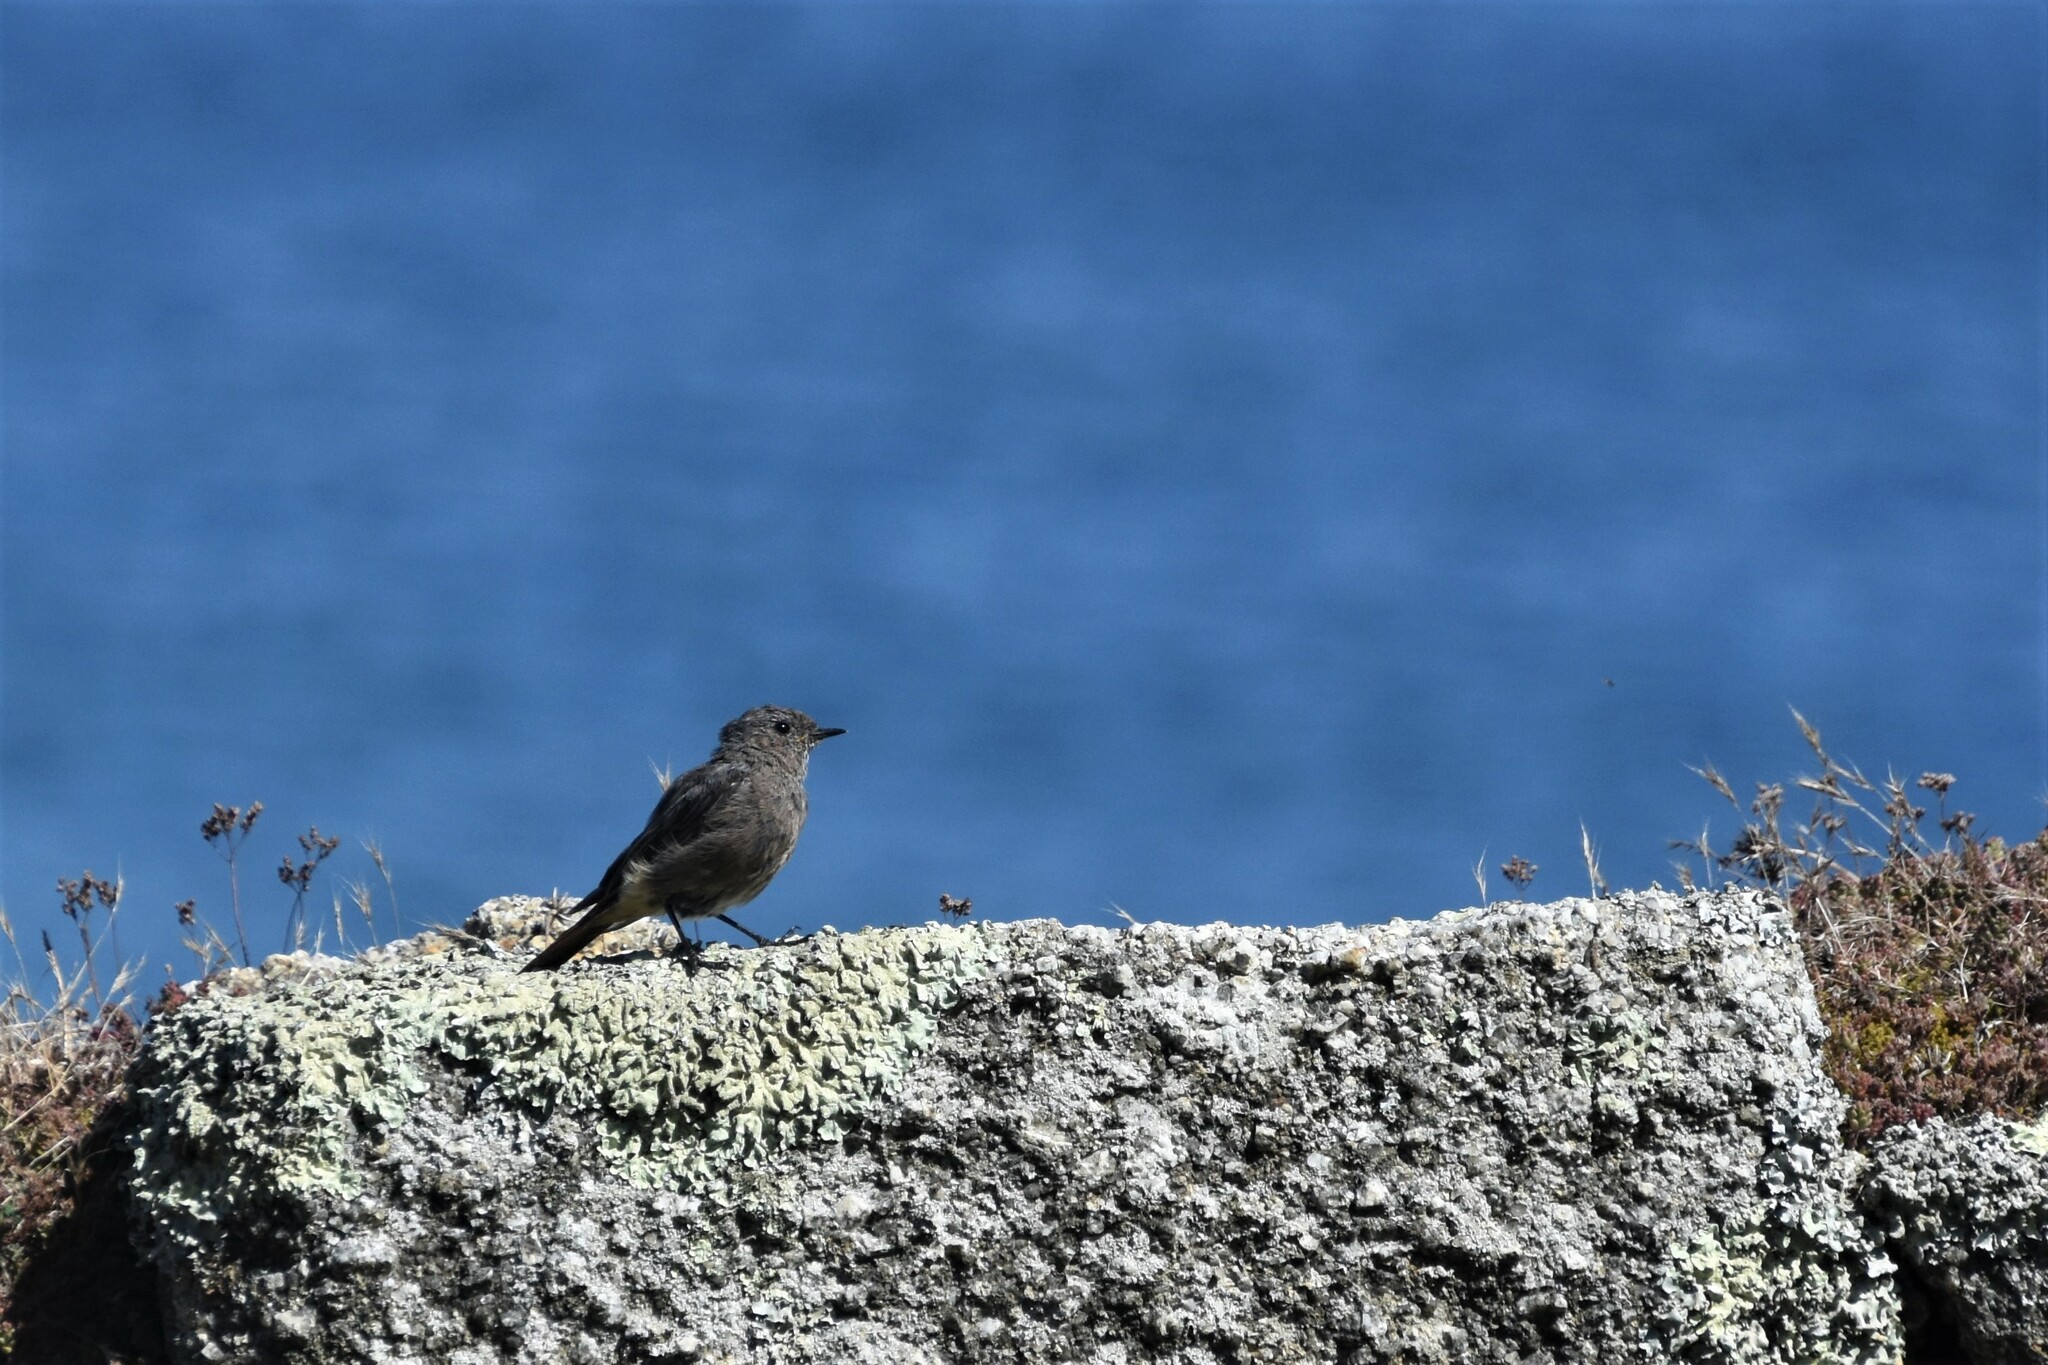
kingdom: Animalia
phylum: Chordata
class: Aves
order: Passeriformes
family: Muscicapidae
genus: Phoenicurus
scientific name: Phoenicurus ochruros
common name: Black redstart
